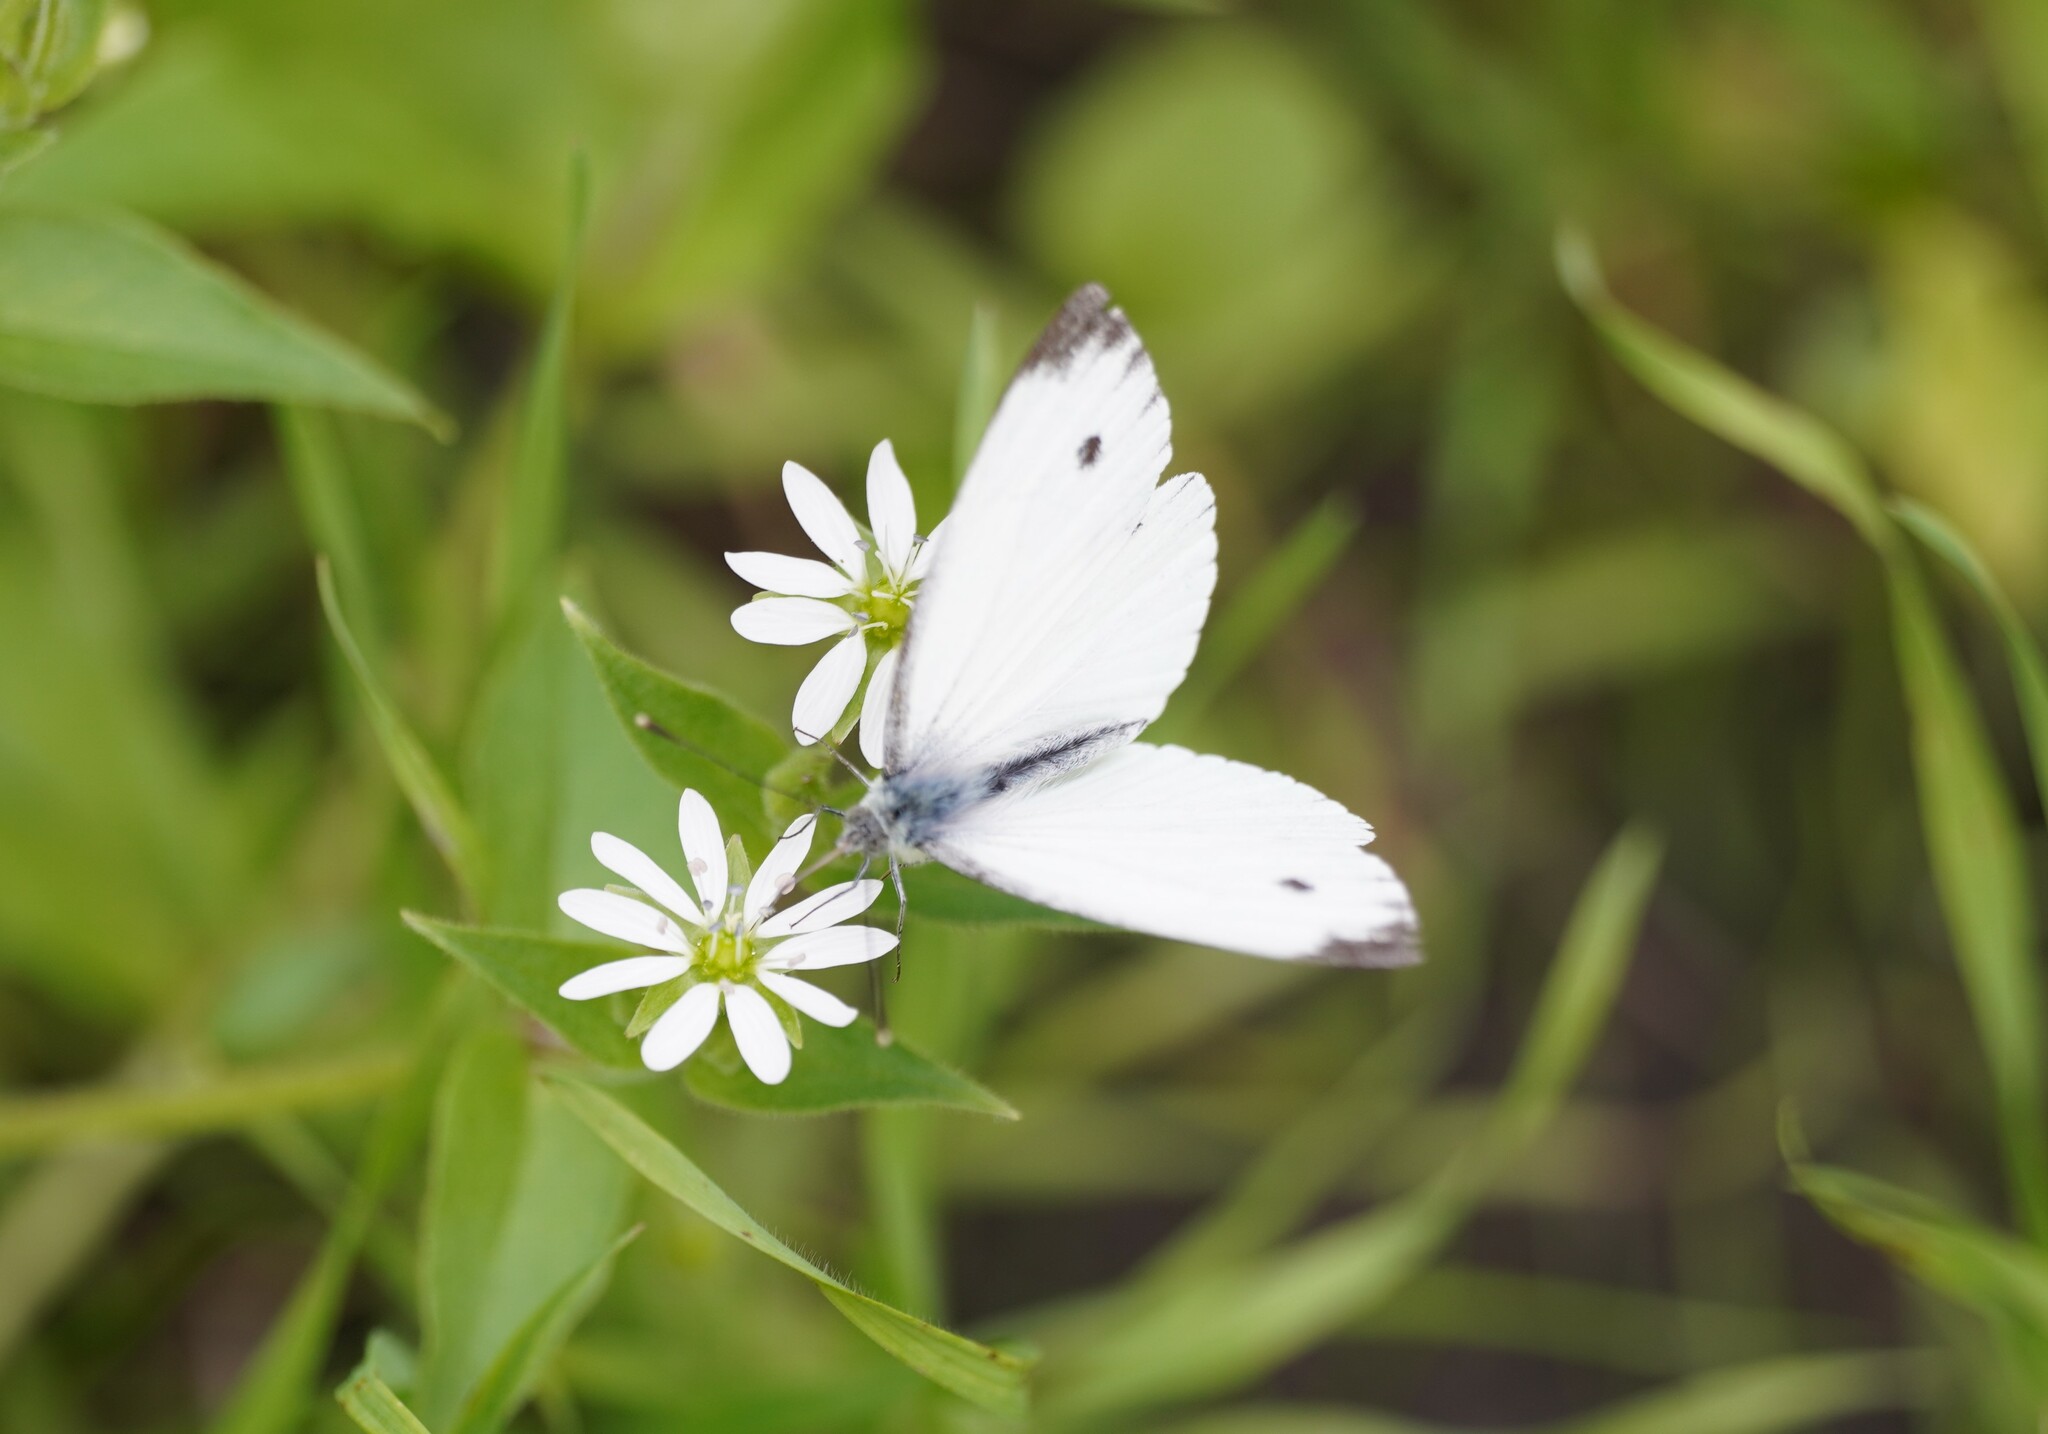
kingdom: Animalia
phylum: Arthropoda
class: Insecta
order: Lepidoptera
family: Pieridae
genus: Pieris
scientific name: Pieris napi
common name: Green-veined white
